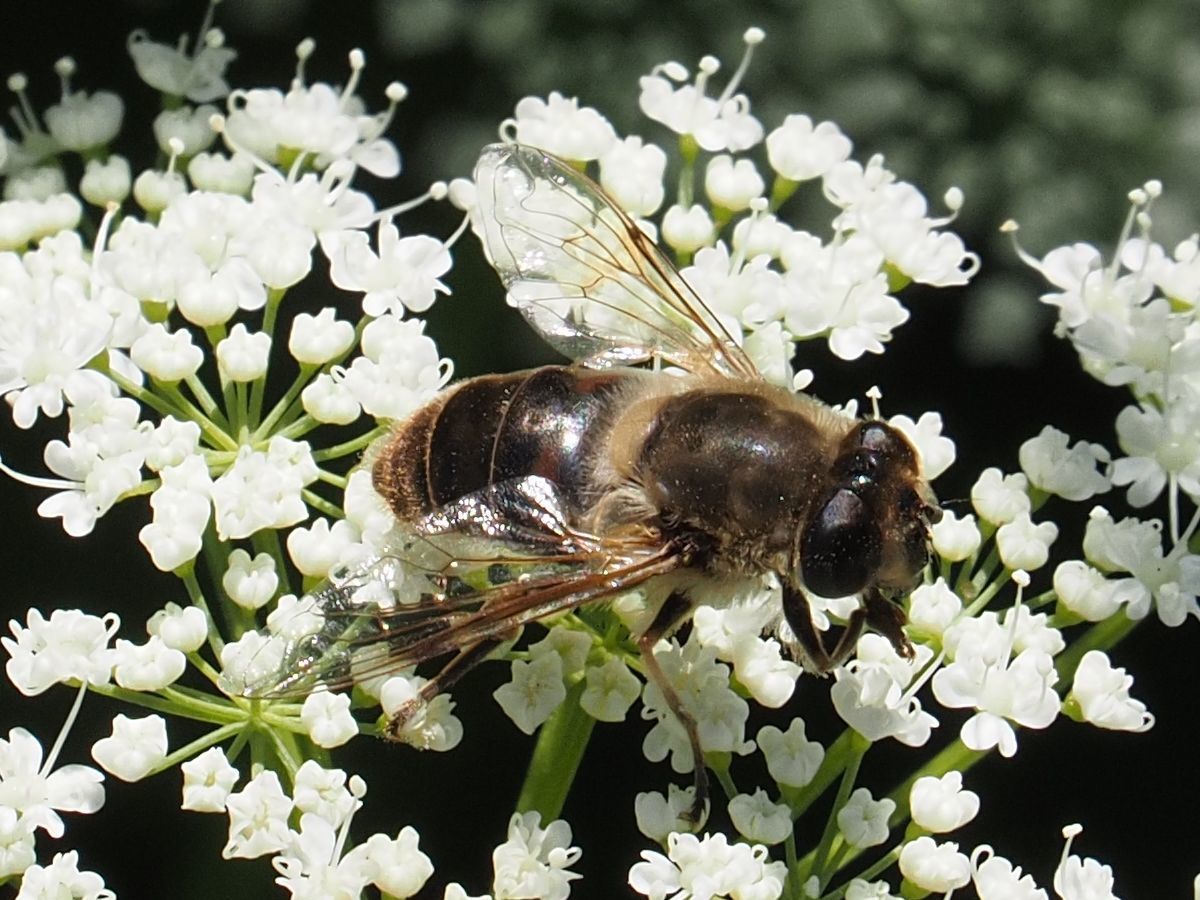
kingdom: Animalia
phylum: Arthropoda
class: Insecta
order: Diptera
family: Syrphidae
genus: Eristalis
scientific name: Eristalis tenax
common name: Drone fly
